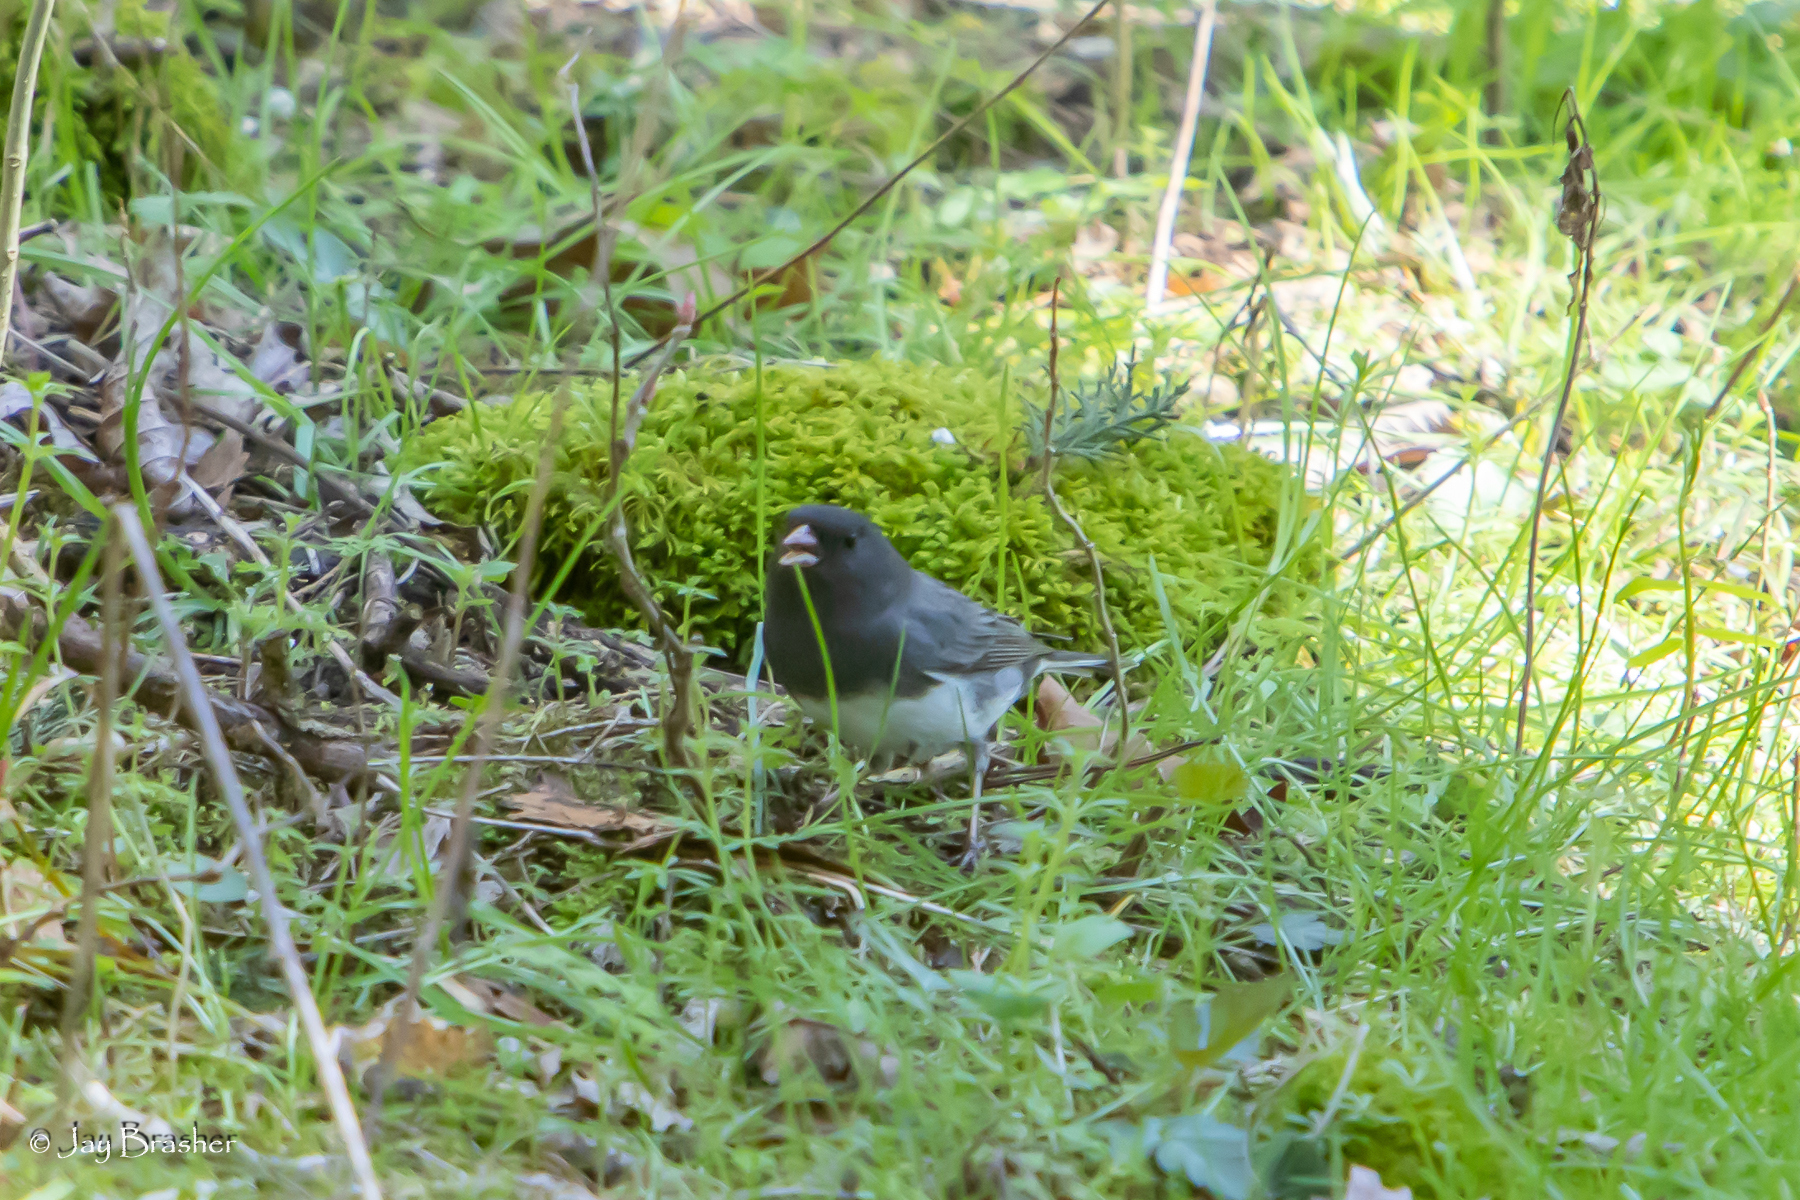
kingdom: Animalia
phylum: Chordata
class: Aves
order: Passeriformes
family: Passerellidae
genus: Junco
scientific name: Junco hyemalis
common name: Dark-eyed junco
